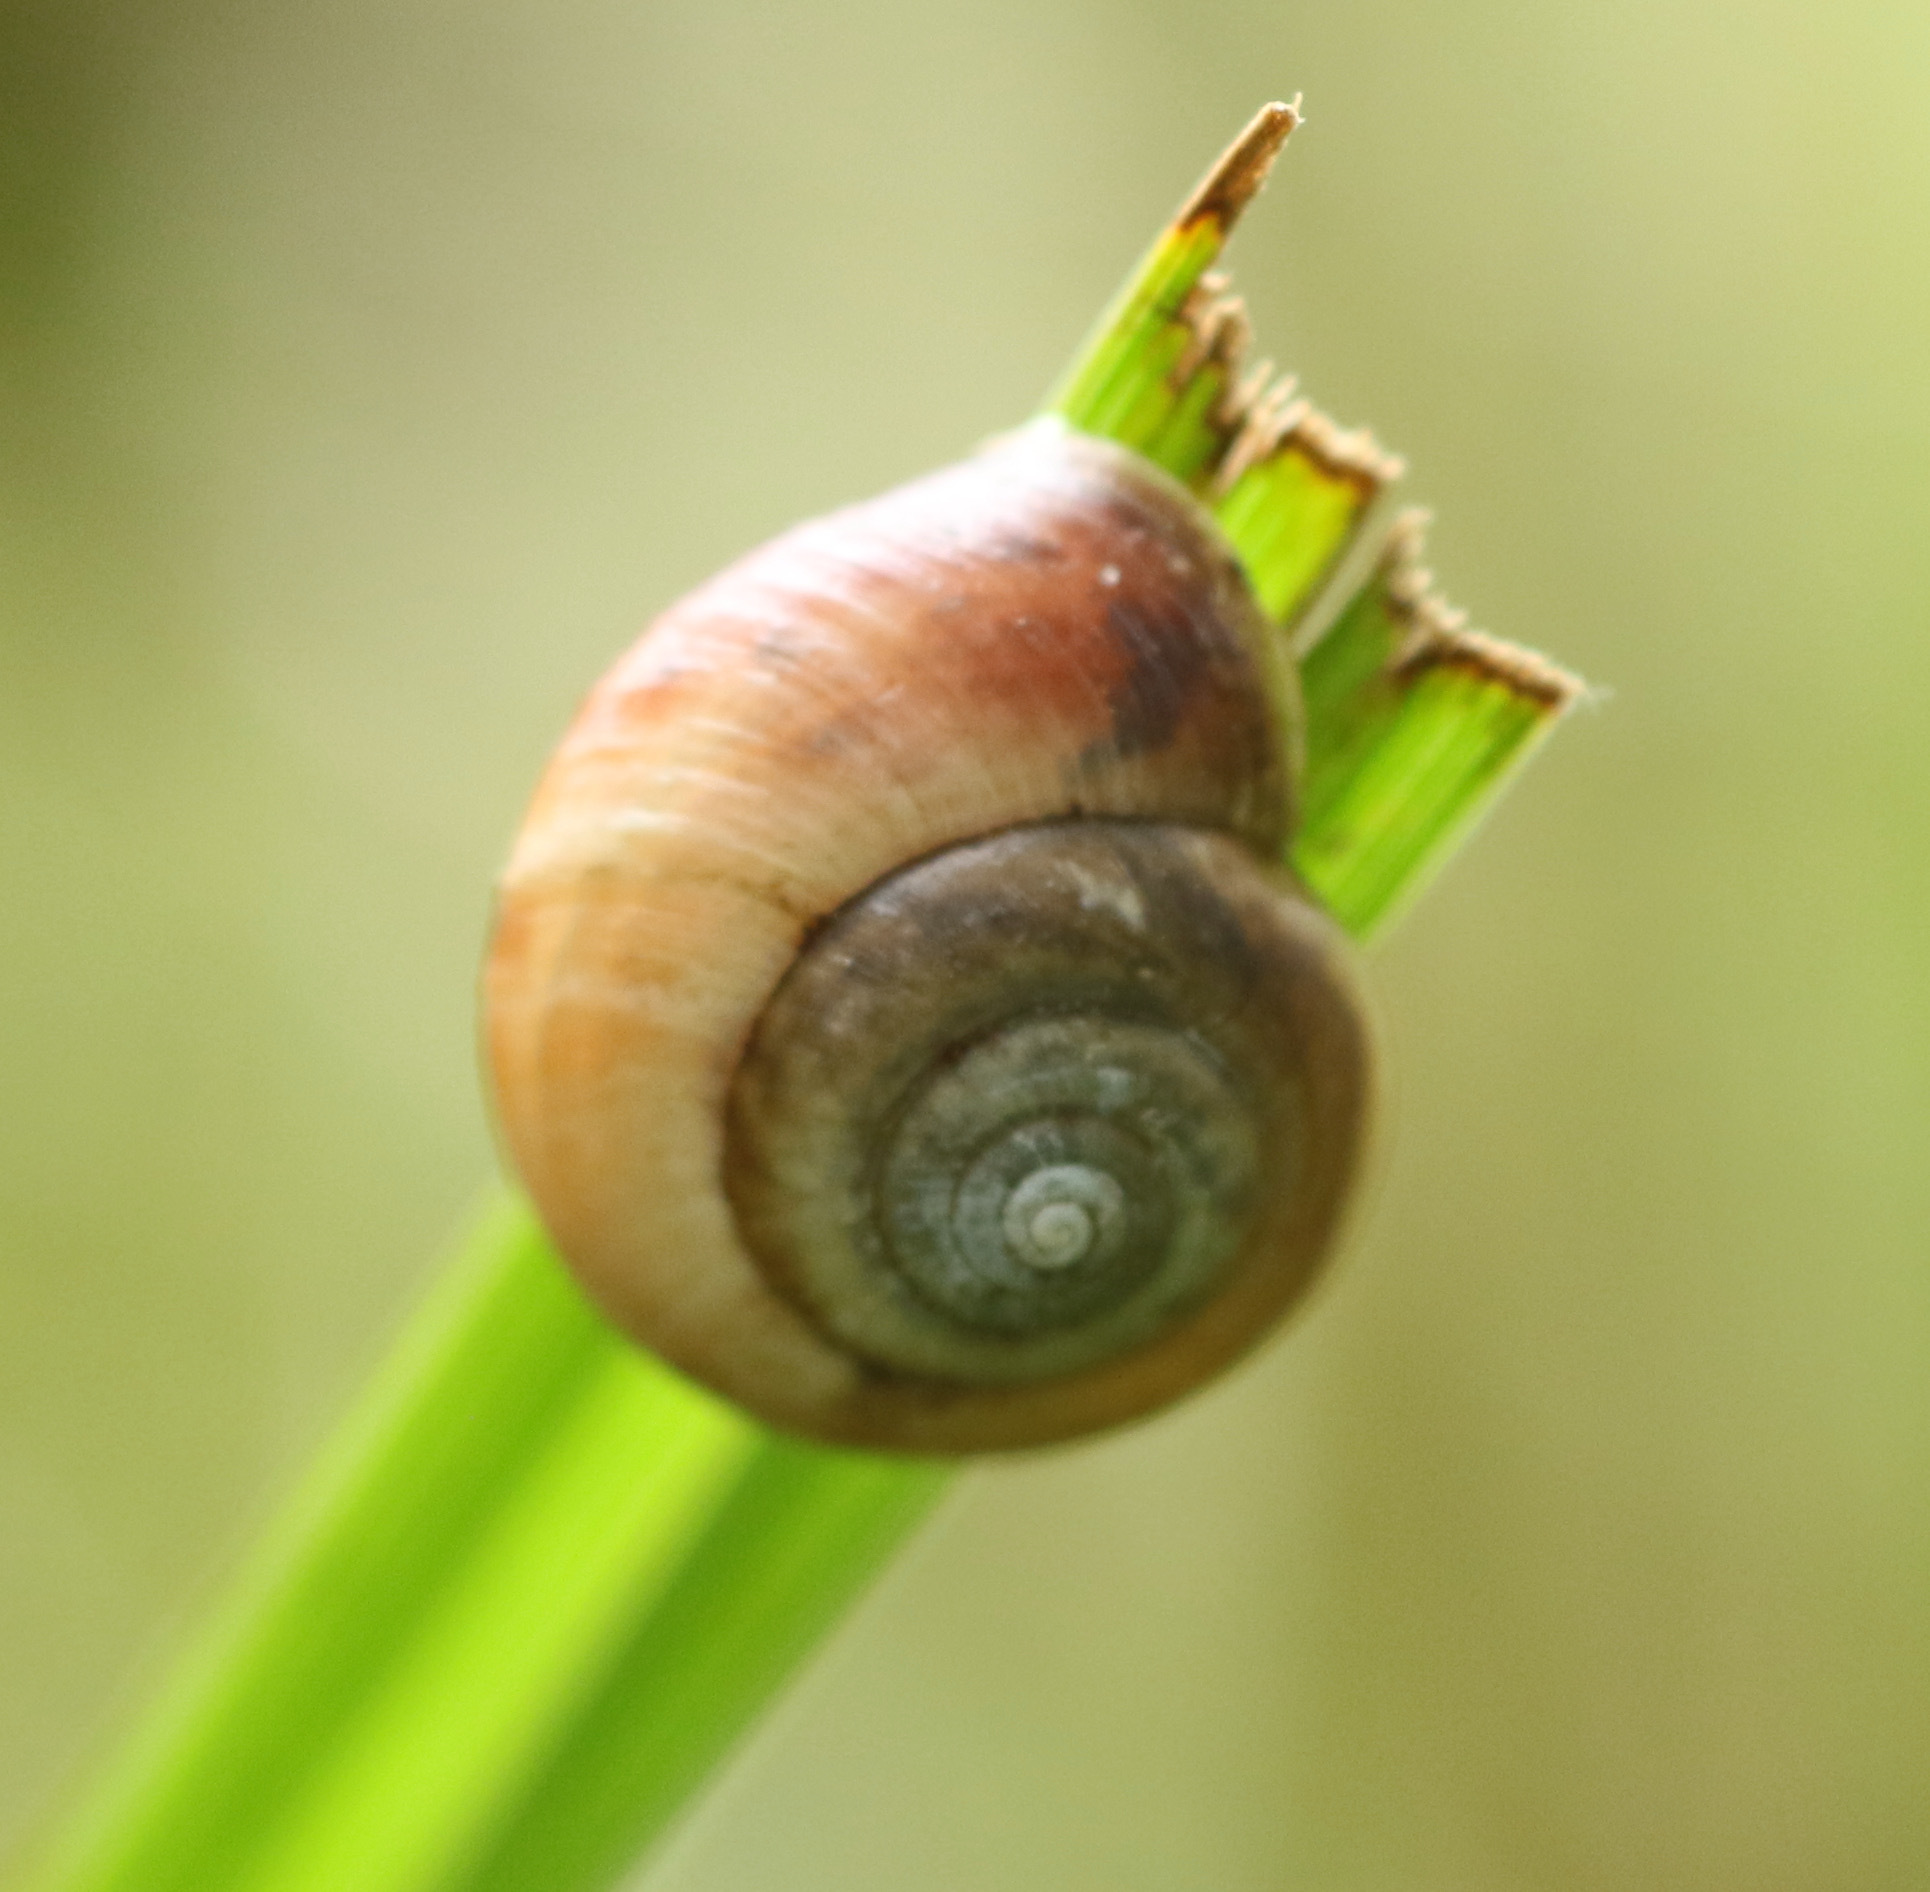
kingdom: Animalia
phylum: Mollusca
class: Gastropoda
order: Stylommatophora
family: Hygromiidae
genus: Monacha
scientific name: Monacha cantiana
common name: Kentish snail
